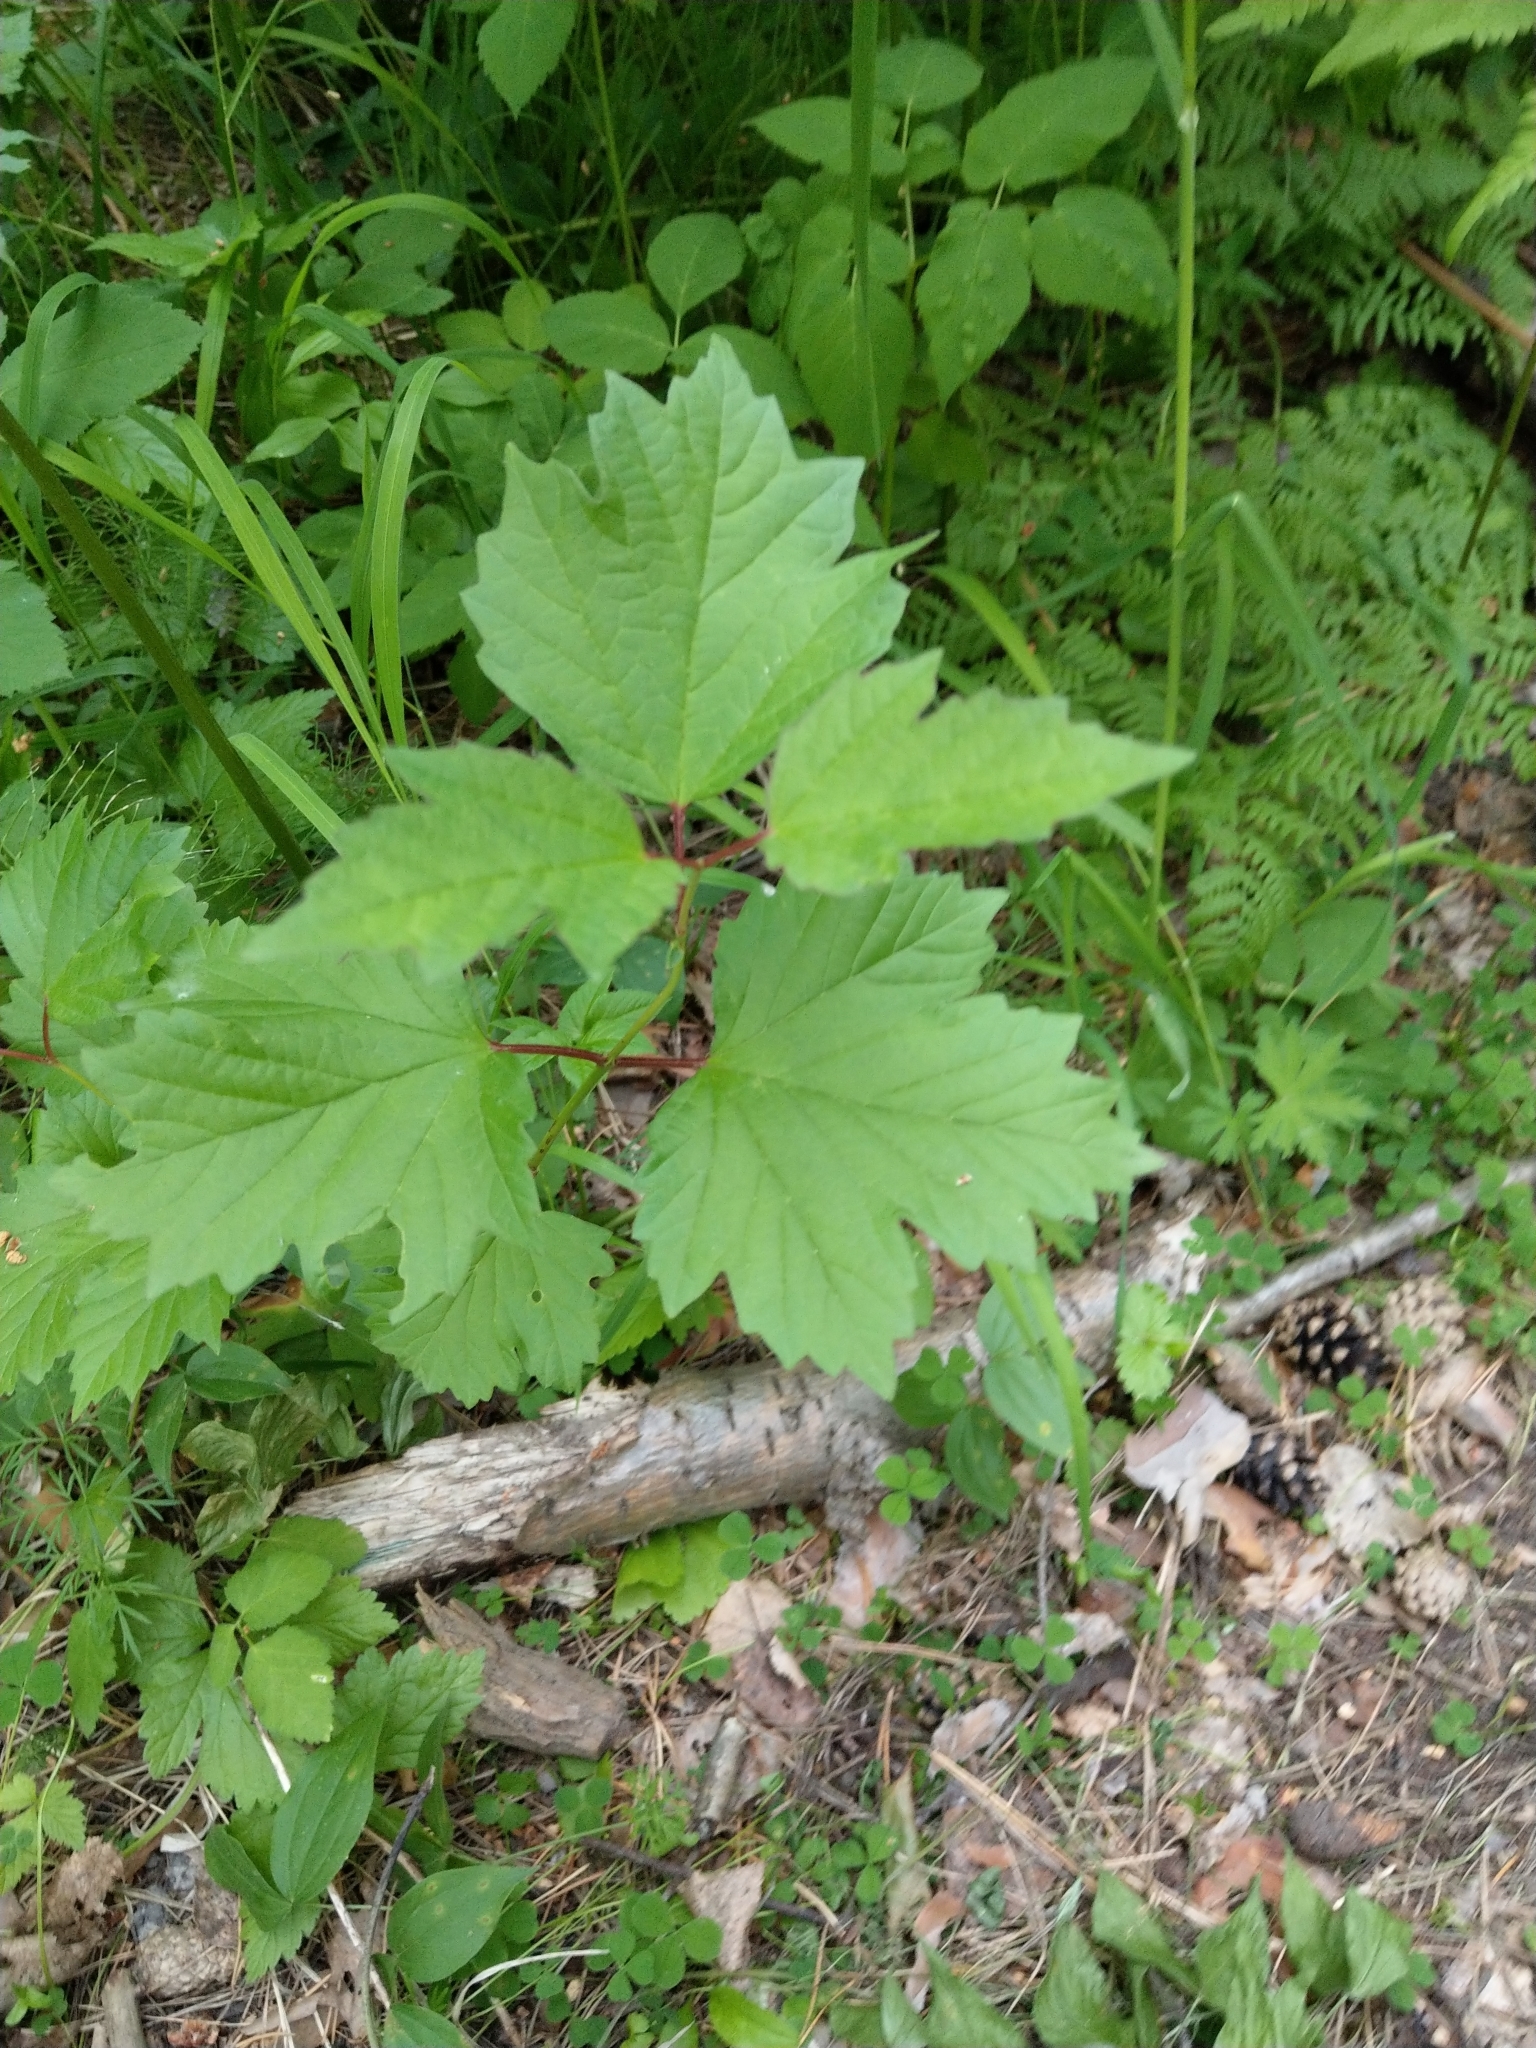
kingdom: Plantae
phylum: Tracheophyta
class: Magnoliopsida
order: Dipsacales
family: Viburnaceae
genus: Viburnum
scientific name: Viburnum opulus
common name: Guelder-rose
